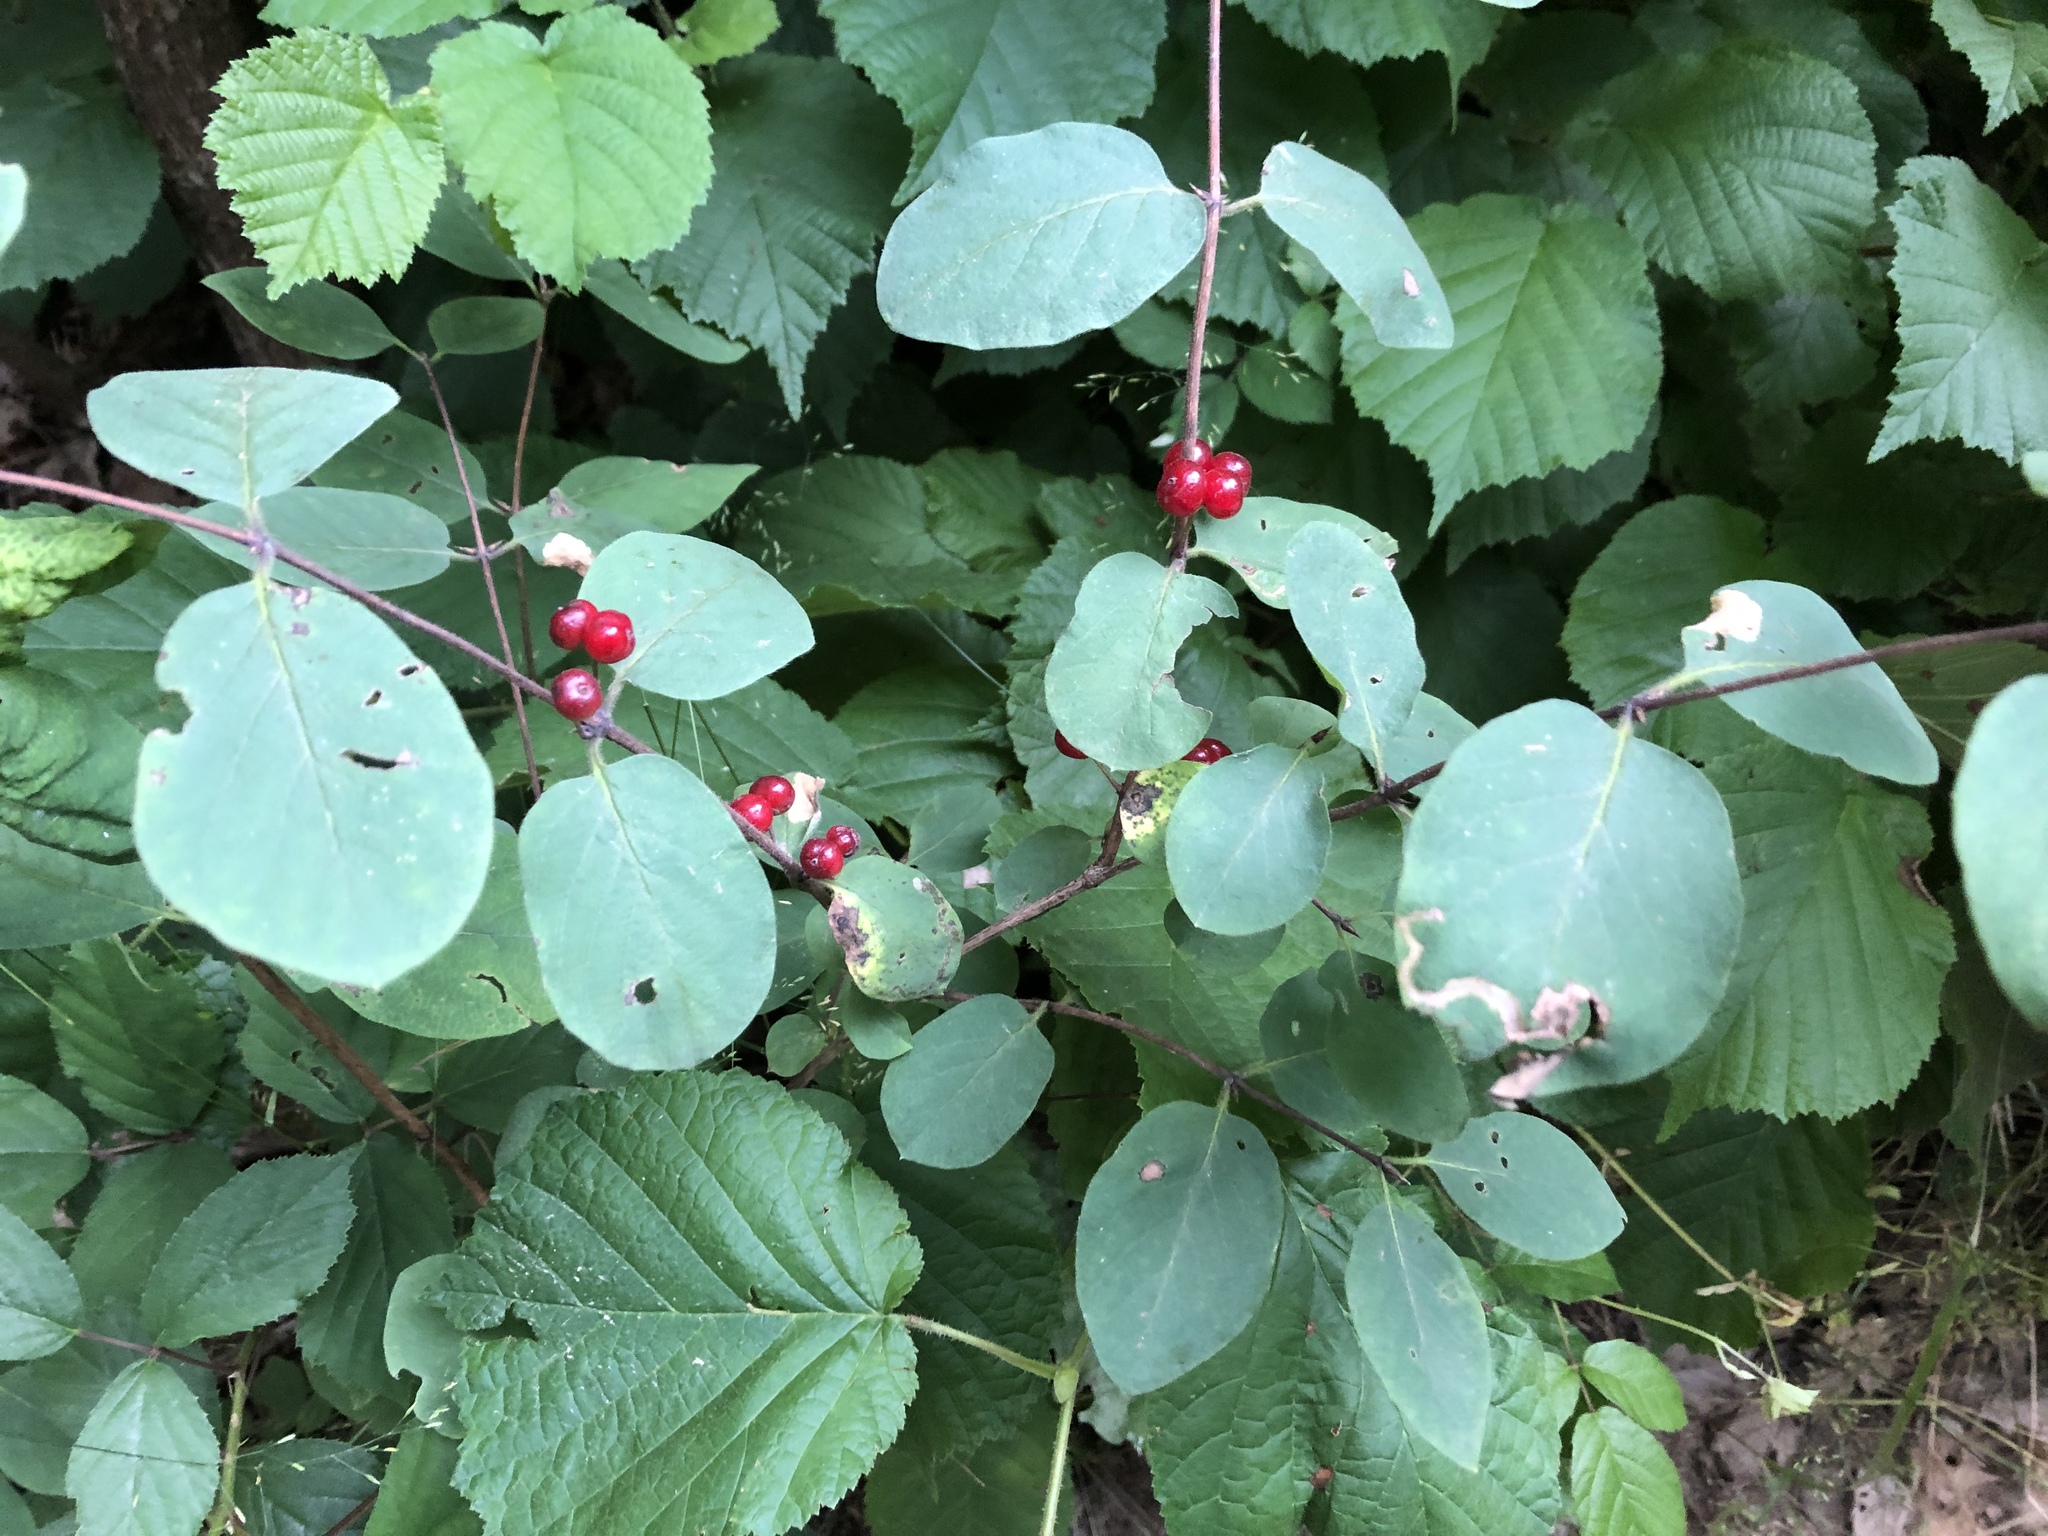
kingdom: Plantae
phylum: Tracheophyta
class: Magnoliopsida
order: Dipsacales
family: Caprifoliaceae
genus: Lonicera
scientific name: Lonicera xylosteum
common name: Fly honeysuckle
